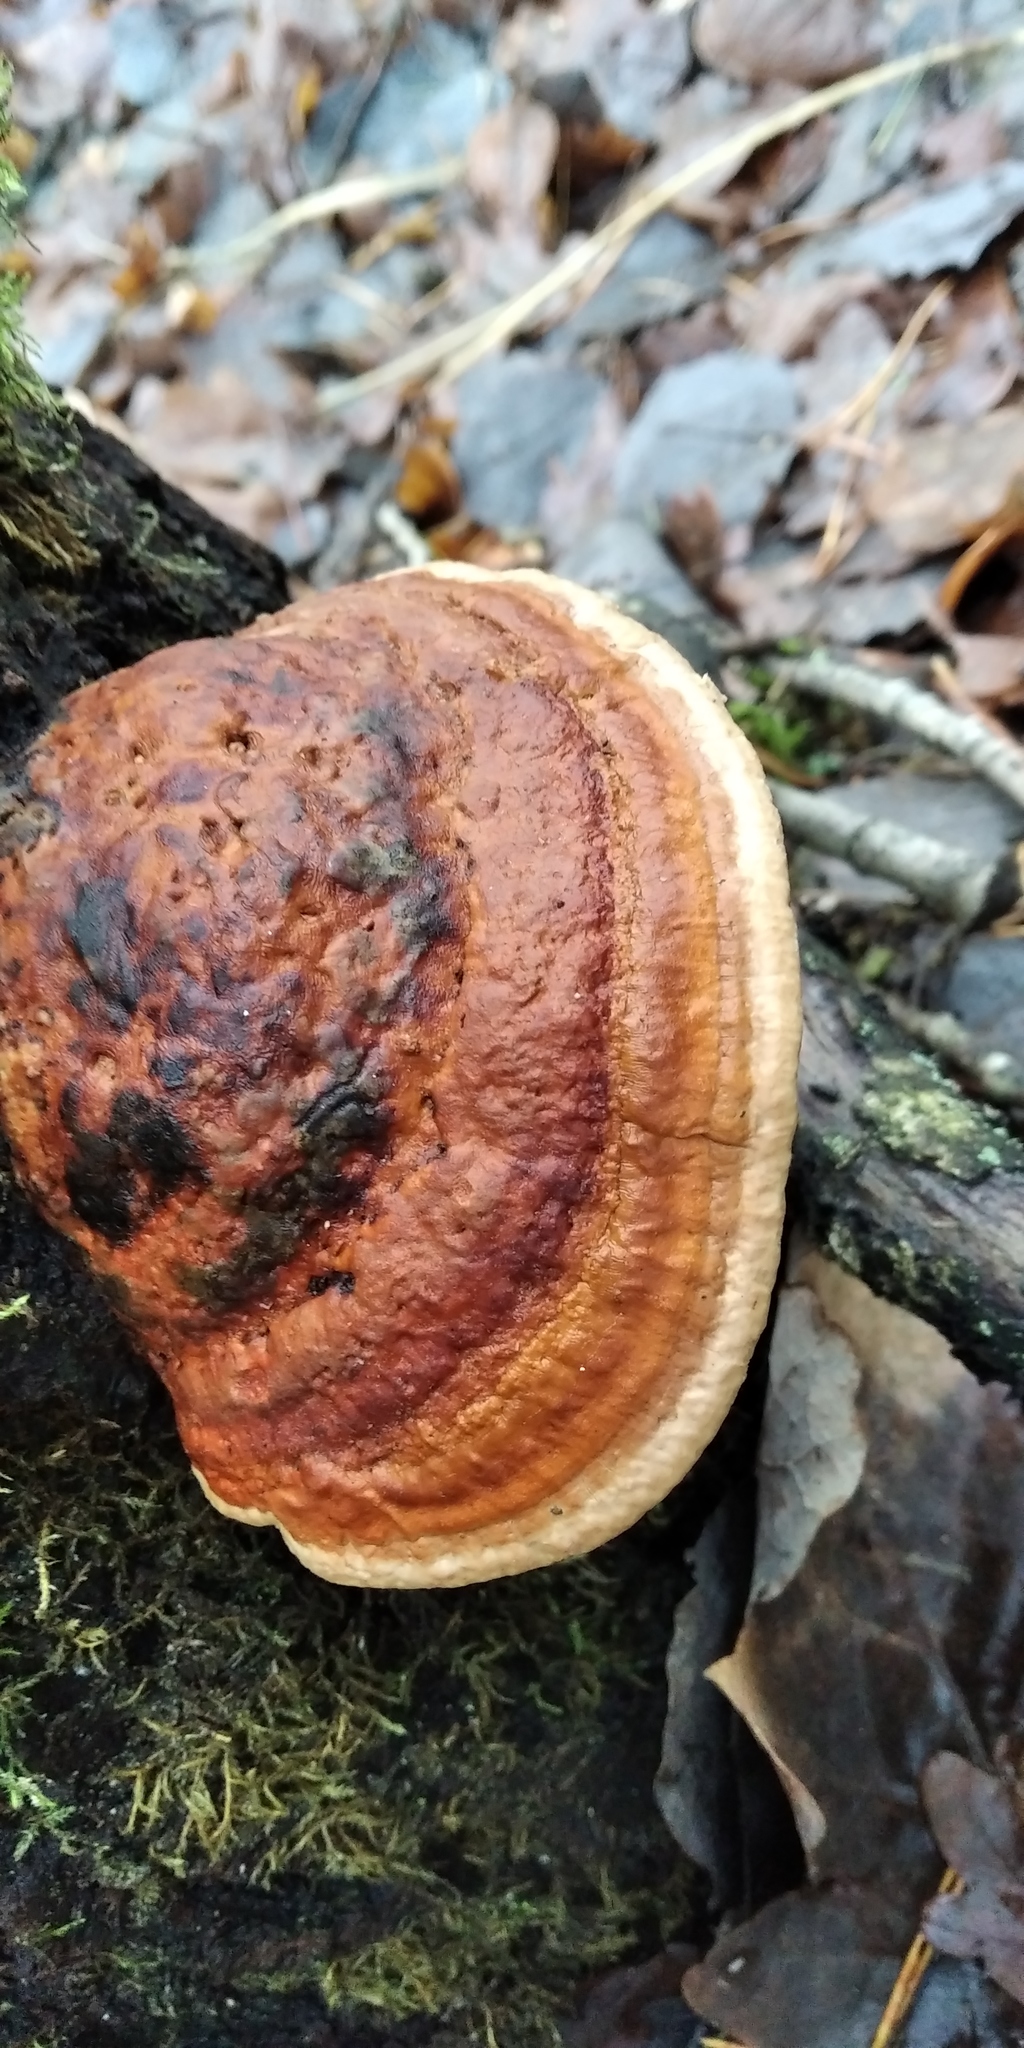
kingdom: Fungi
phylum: Basidiomycota
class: Agaricomycetes
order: Polyporales
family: Fomitopsidaceae
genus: Fomitopsis
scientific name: Fomitopsis pinicola
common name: Red-belted bracket
